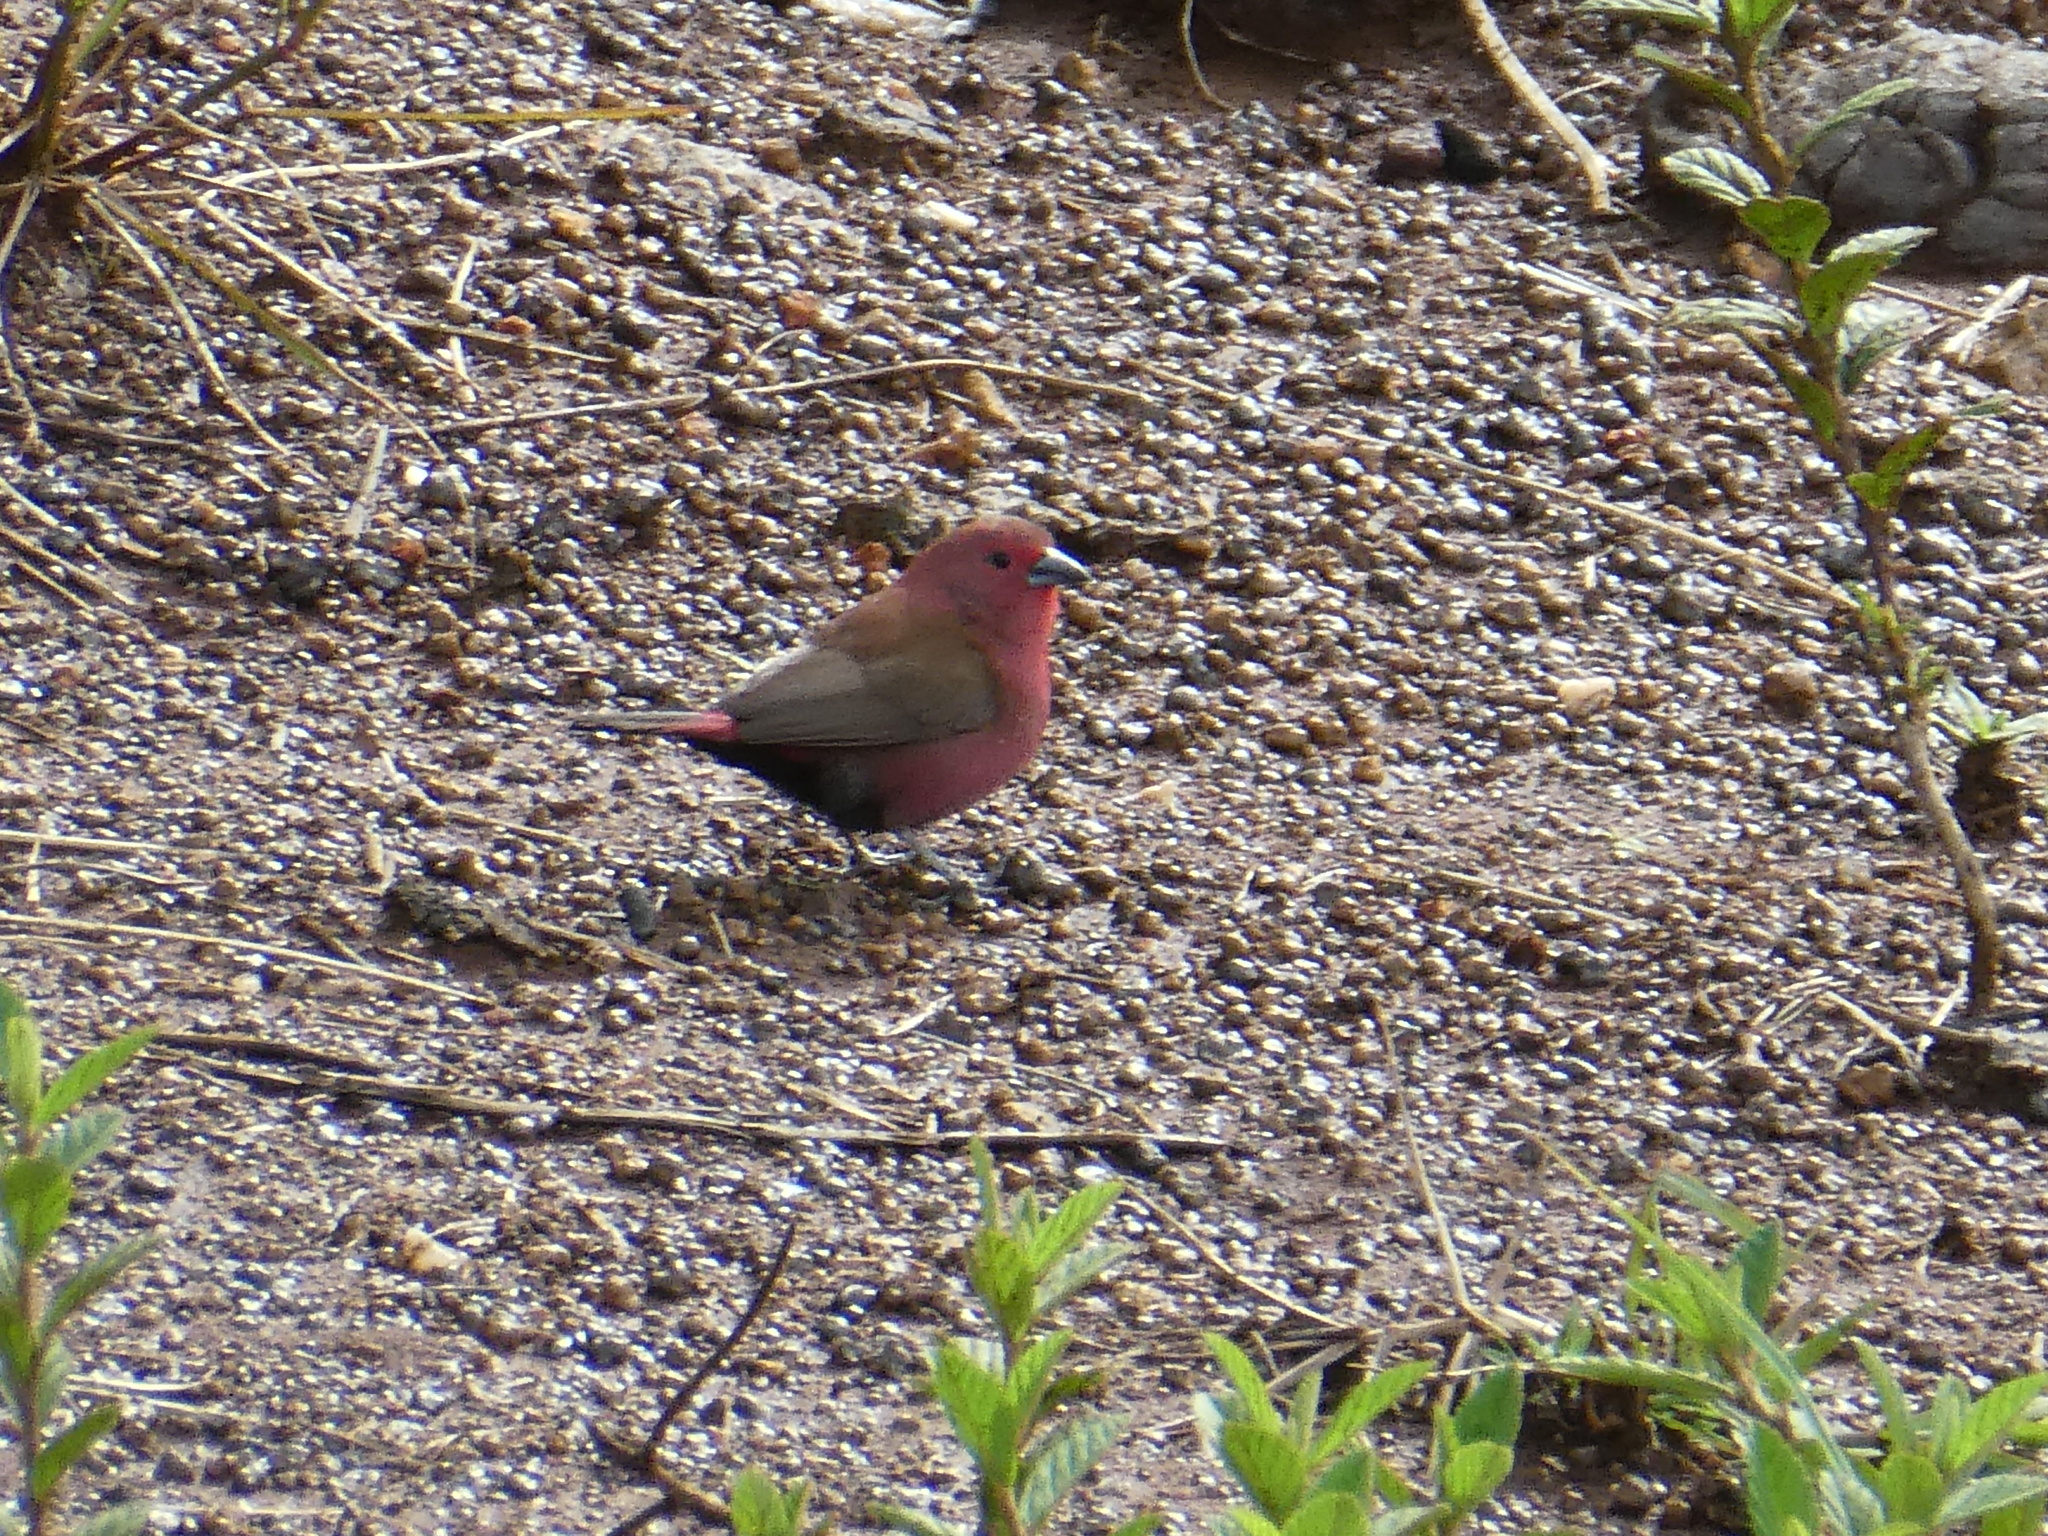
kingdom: Animalia
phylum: Chordata
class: Aves
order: Passeriformes
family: Estrildidae
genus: Lagonosticta
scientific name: Lagonosticta rhodopareia
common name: Jameson's firefinch
